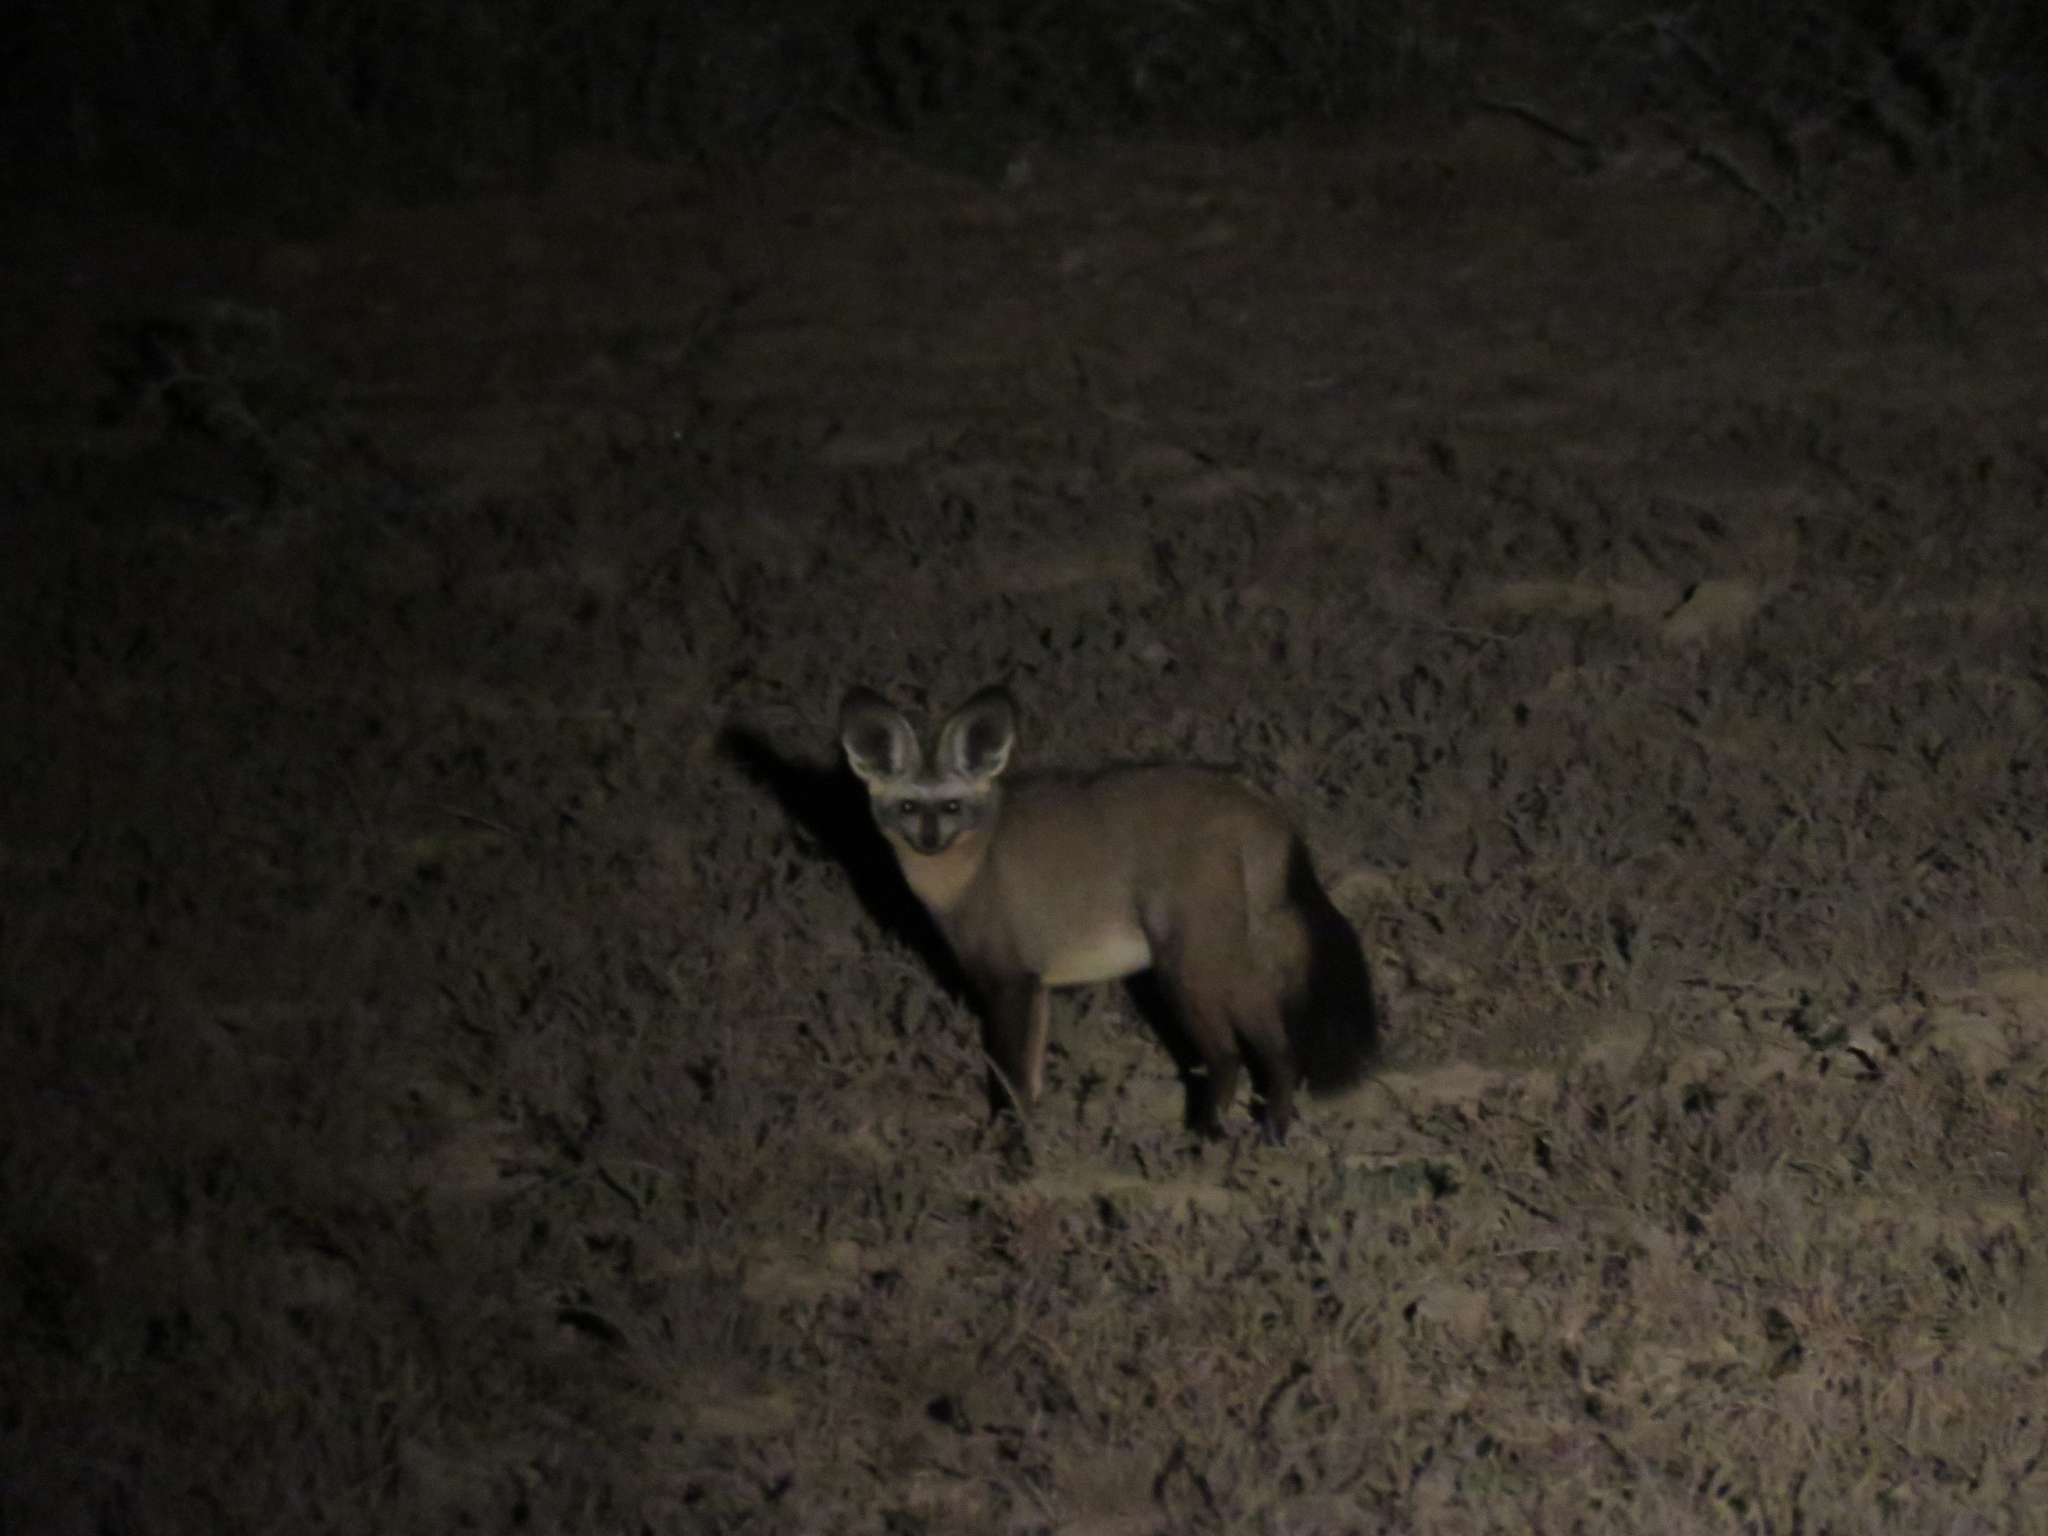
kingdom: Animalia
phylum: Chordata
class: Mammalia
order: Carnivora
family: Canidae
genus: Otocyon
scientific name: Otocyon megalotis
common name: Bat-eared fox
